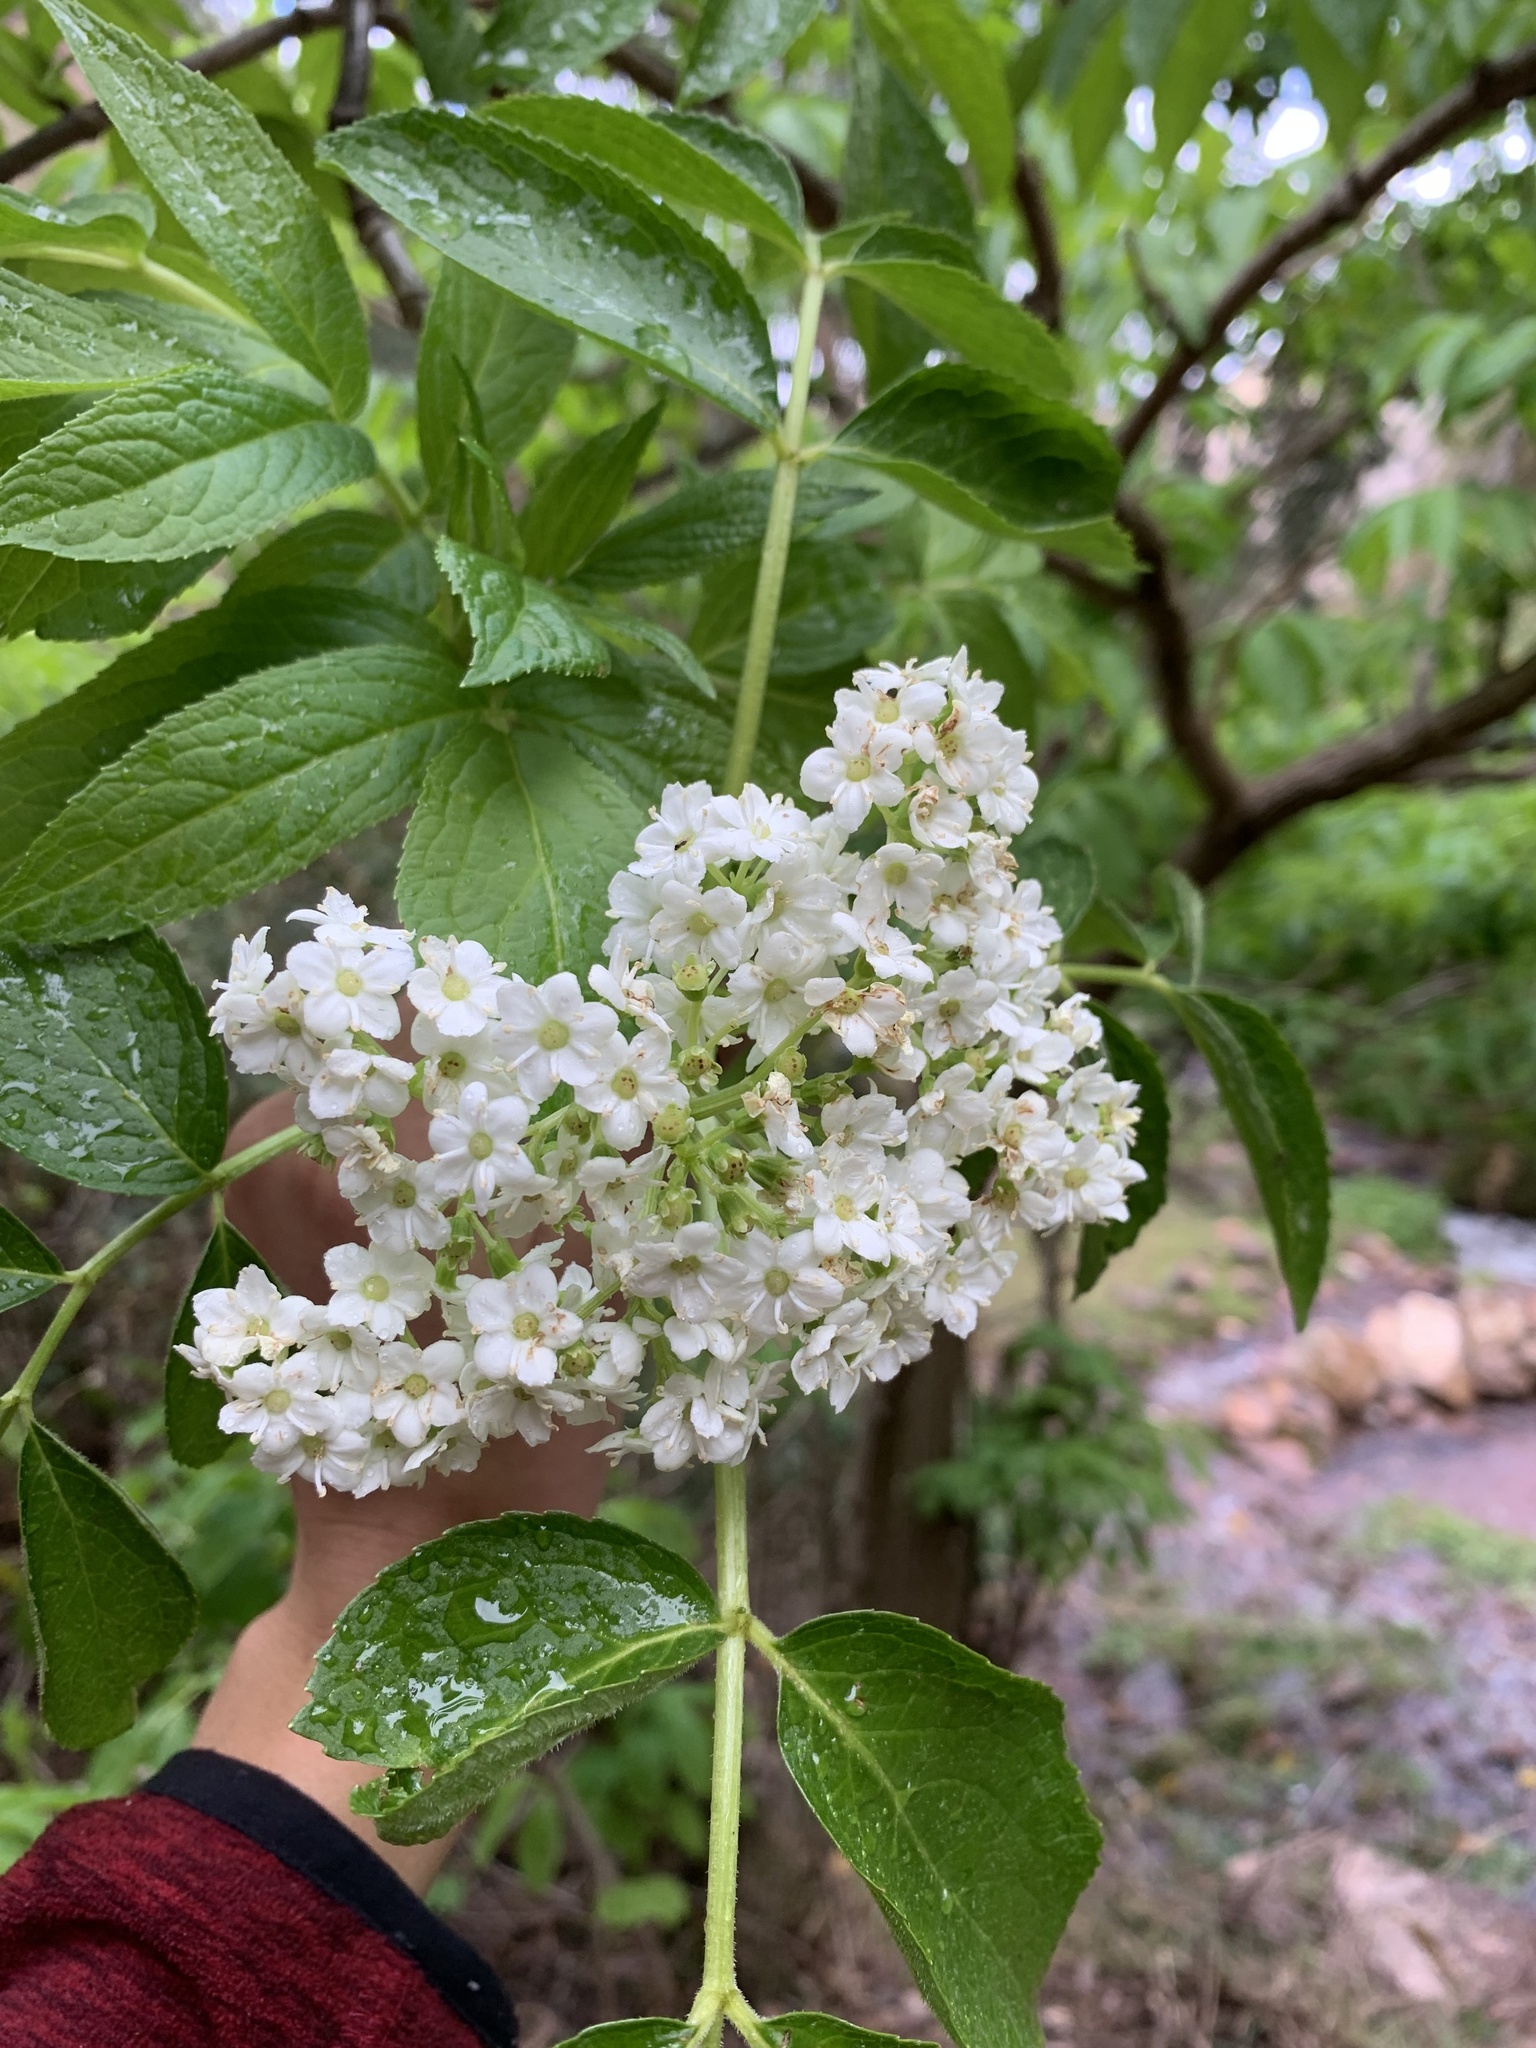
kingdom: Plantae
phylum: Tracheophyta
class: Magnoliopsida
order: Dipsacales
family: Viburnaceae
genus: Sambucus
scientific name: Sambucus peruviana
